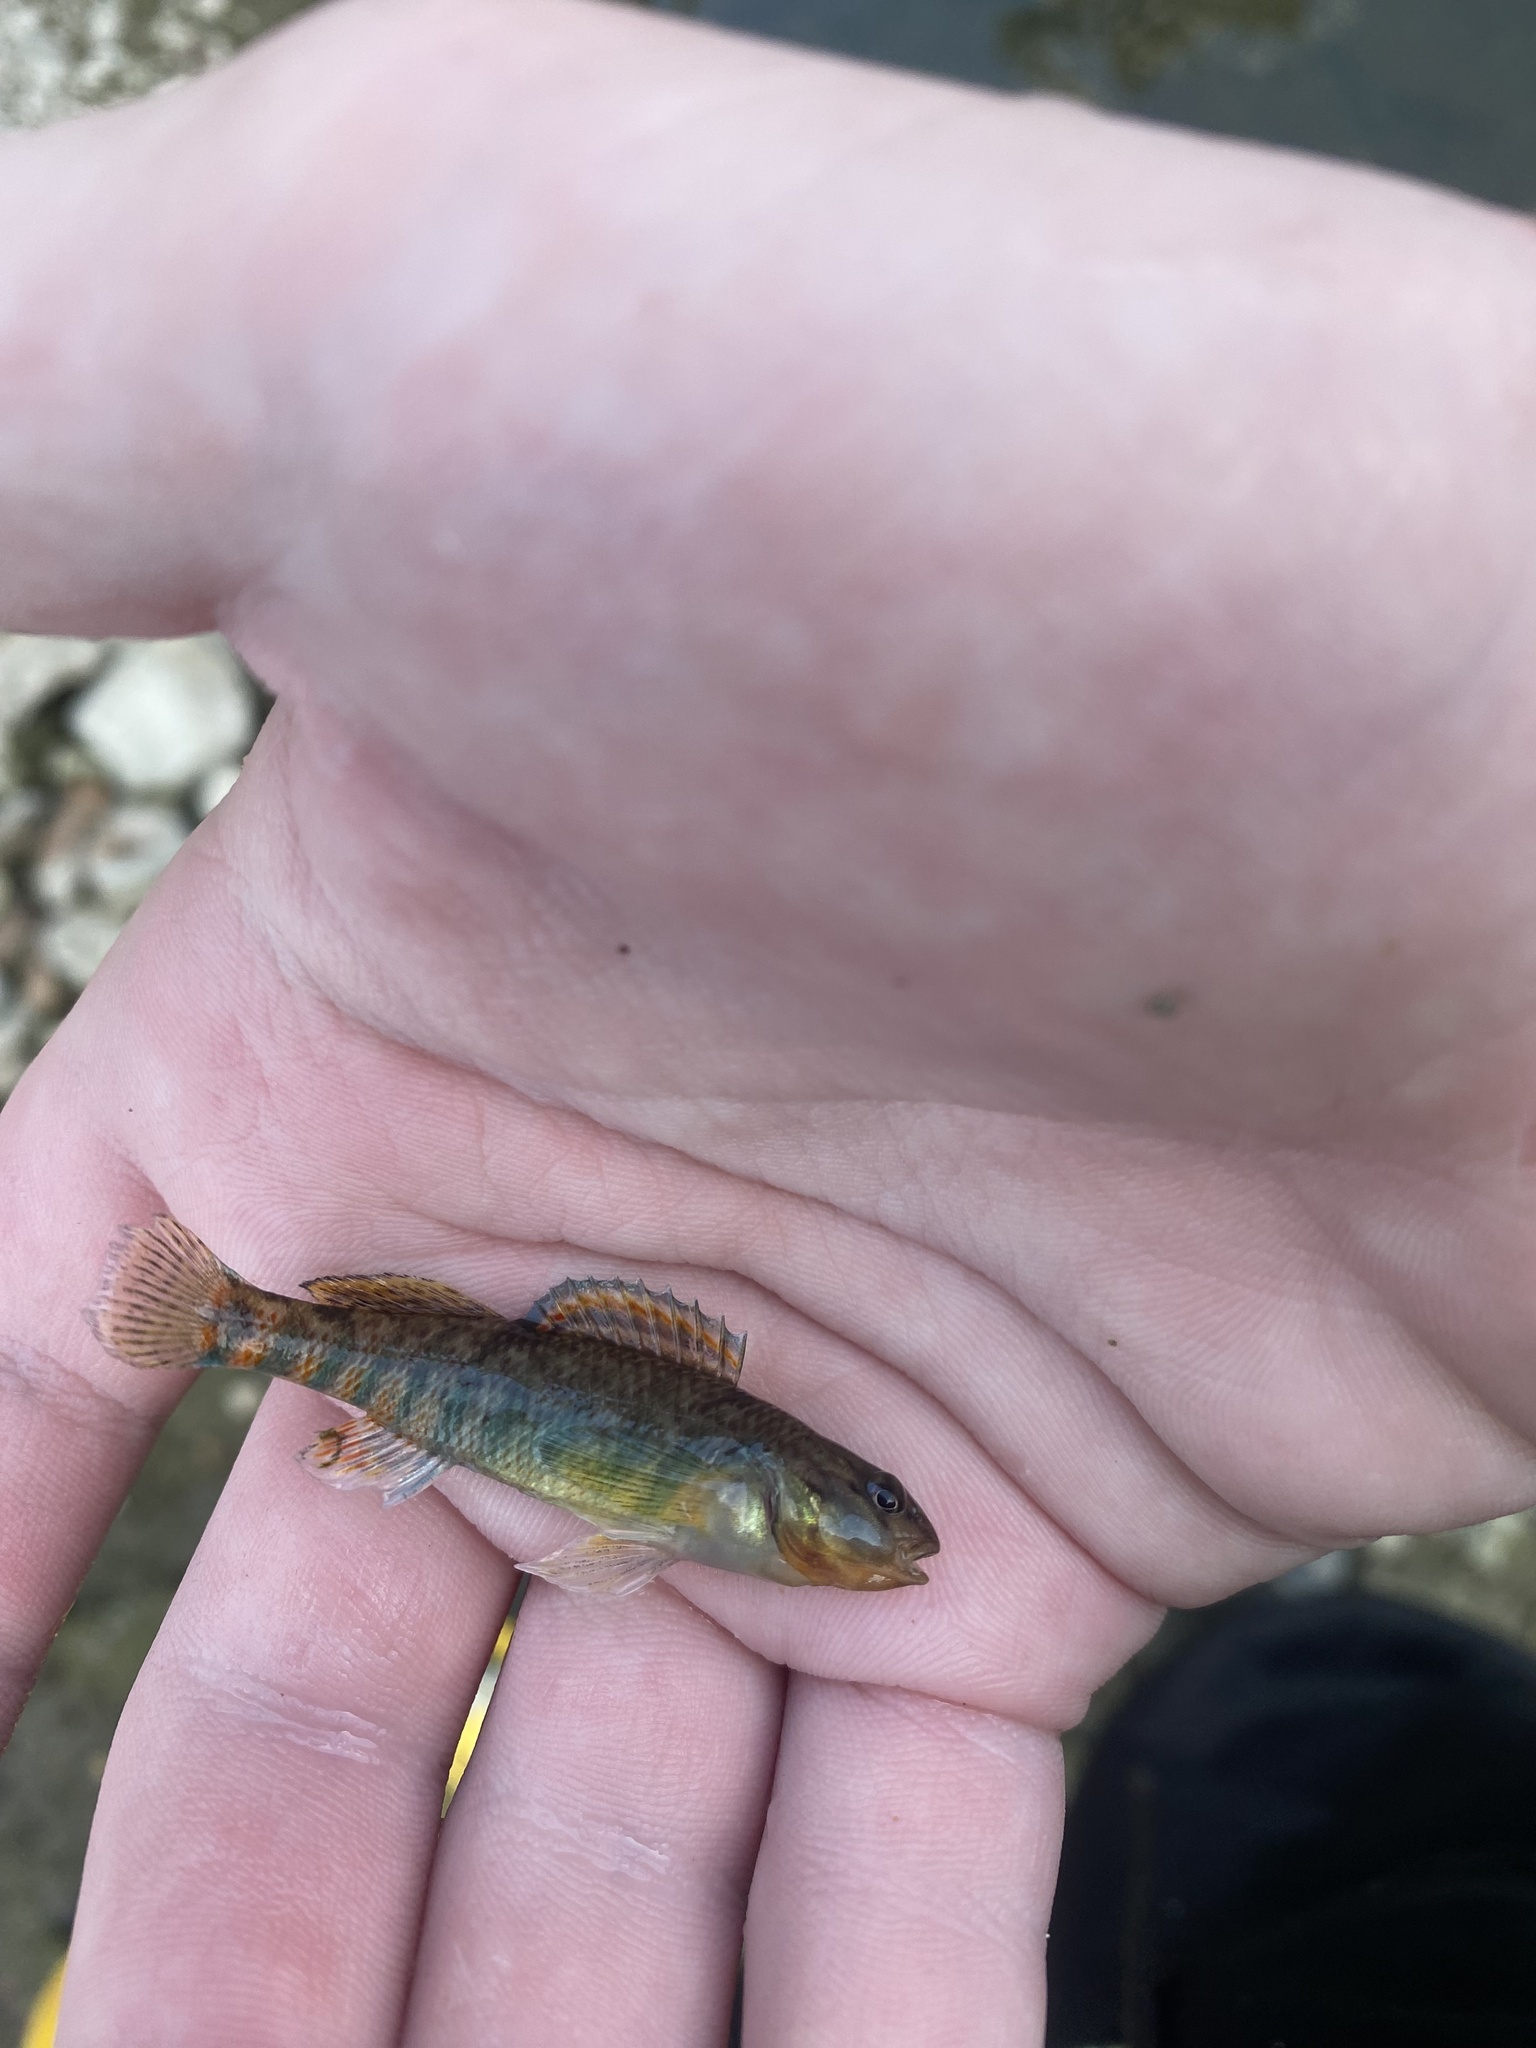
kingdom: Animalia
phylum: Chordata
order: Perciformes
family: Percidae
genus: Etheostoma
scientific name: Etheostoma caeruleum
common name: Rainbow darter
